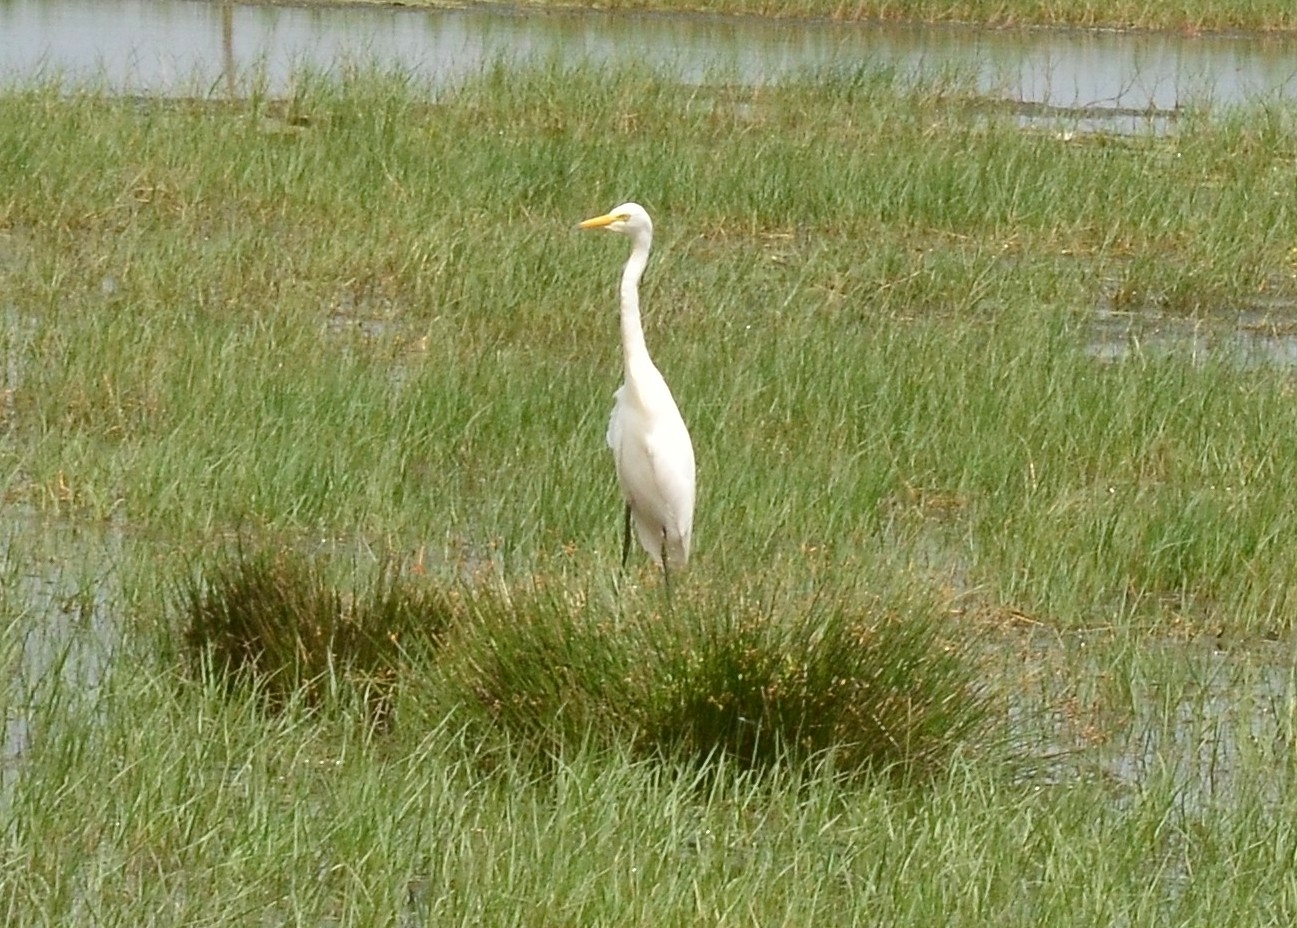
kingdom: Animalia
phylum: Chordata
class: Aves
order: Pelecaniformes
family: Ardeidae
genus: Egretta
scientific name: Egretta intermedia
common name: Intermediate egret
